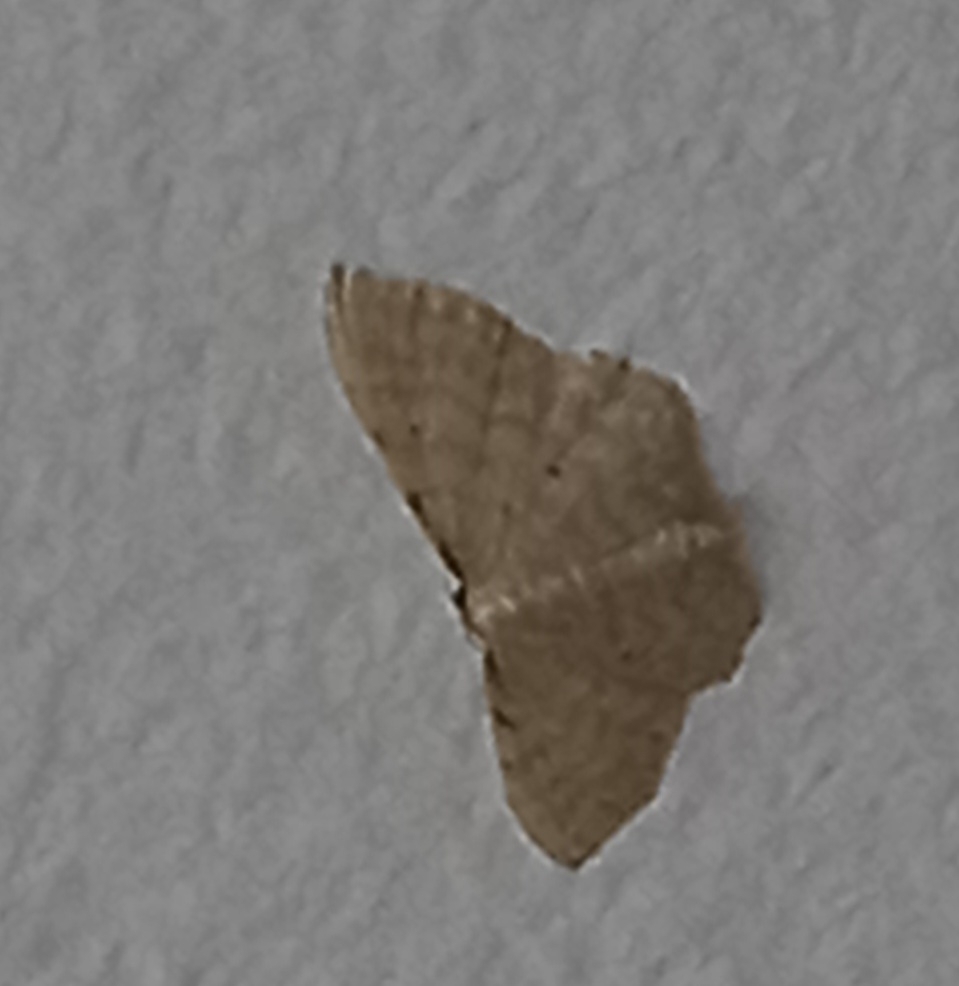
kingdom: Animalia
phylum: Arthropoda
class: Insecta
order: Lepidoptera
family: Geometridae
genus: Idaea
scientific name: Idaea fuscovenosa
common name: Dwarf cream wave
